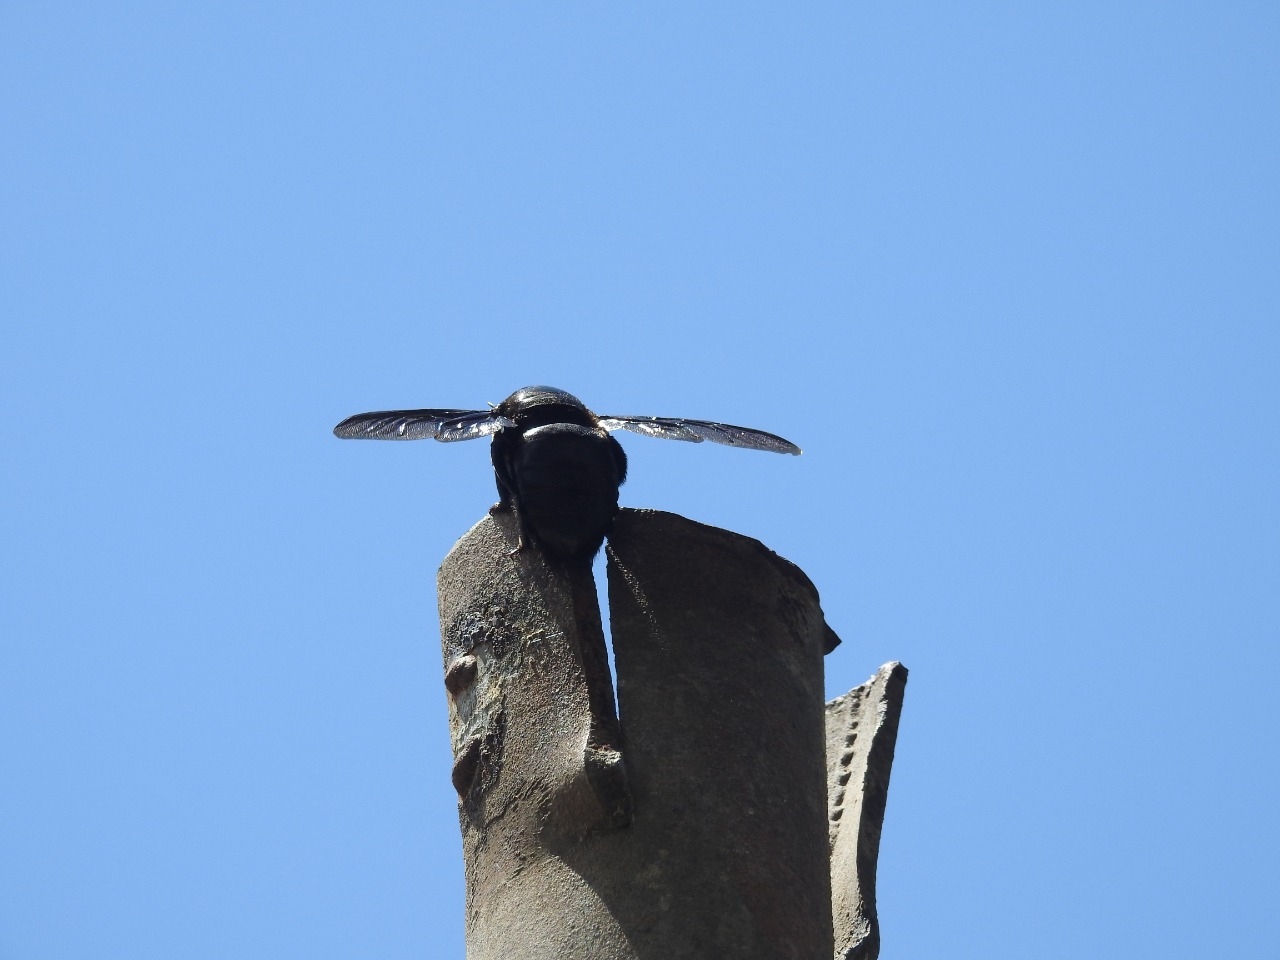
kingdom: Animalia
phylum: Arthropoda
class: Insecta
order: Hymenoptera
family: Apidae
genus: Xylocopa
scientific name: Xylocopa perforator
